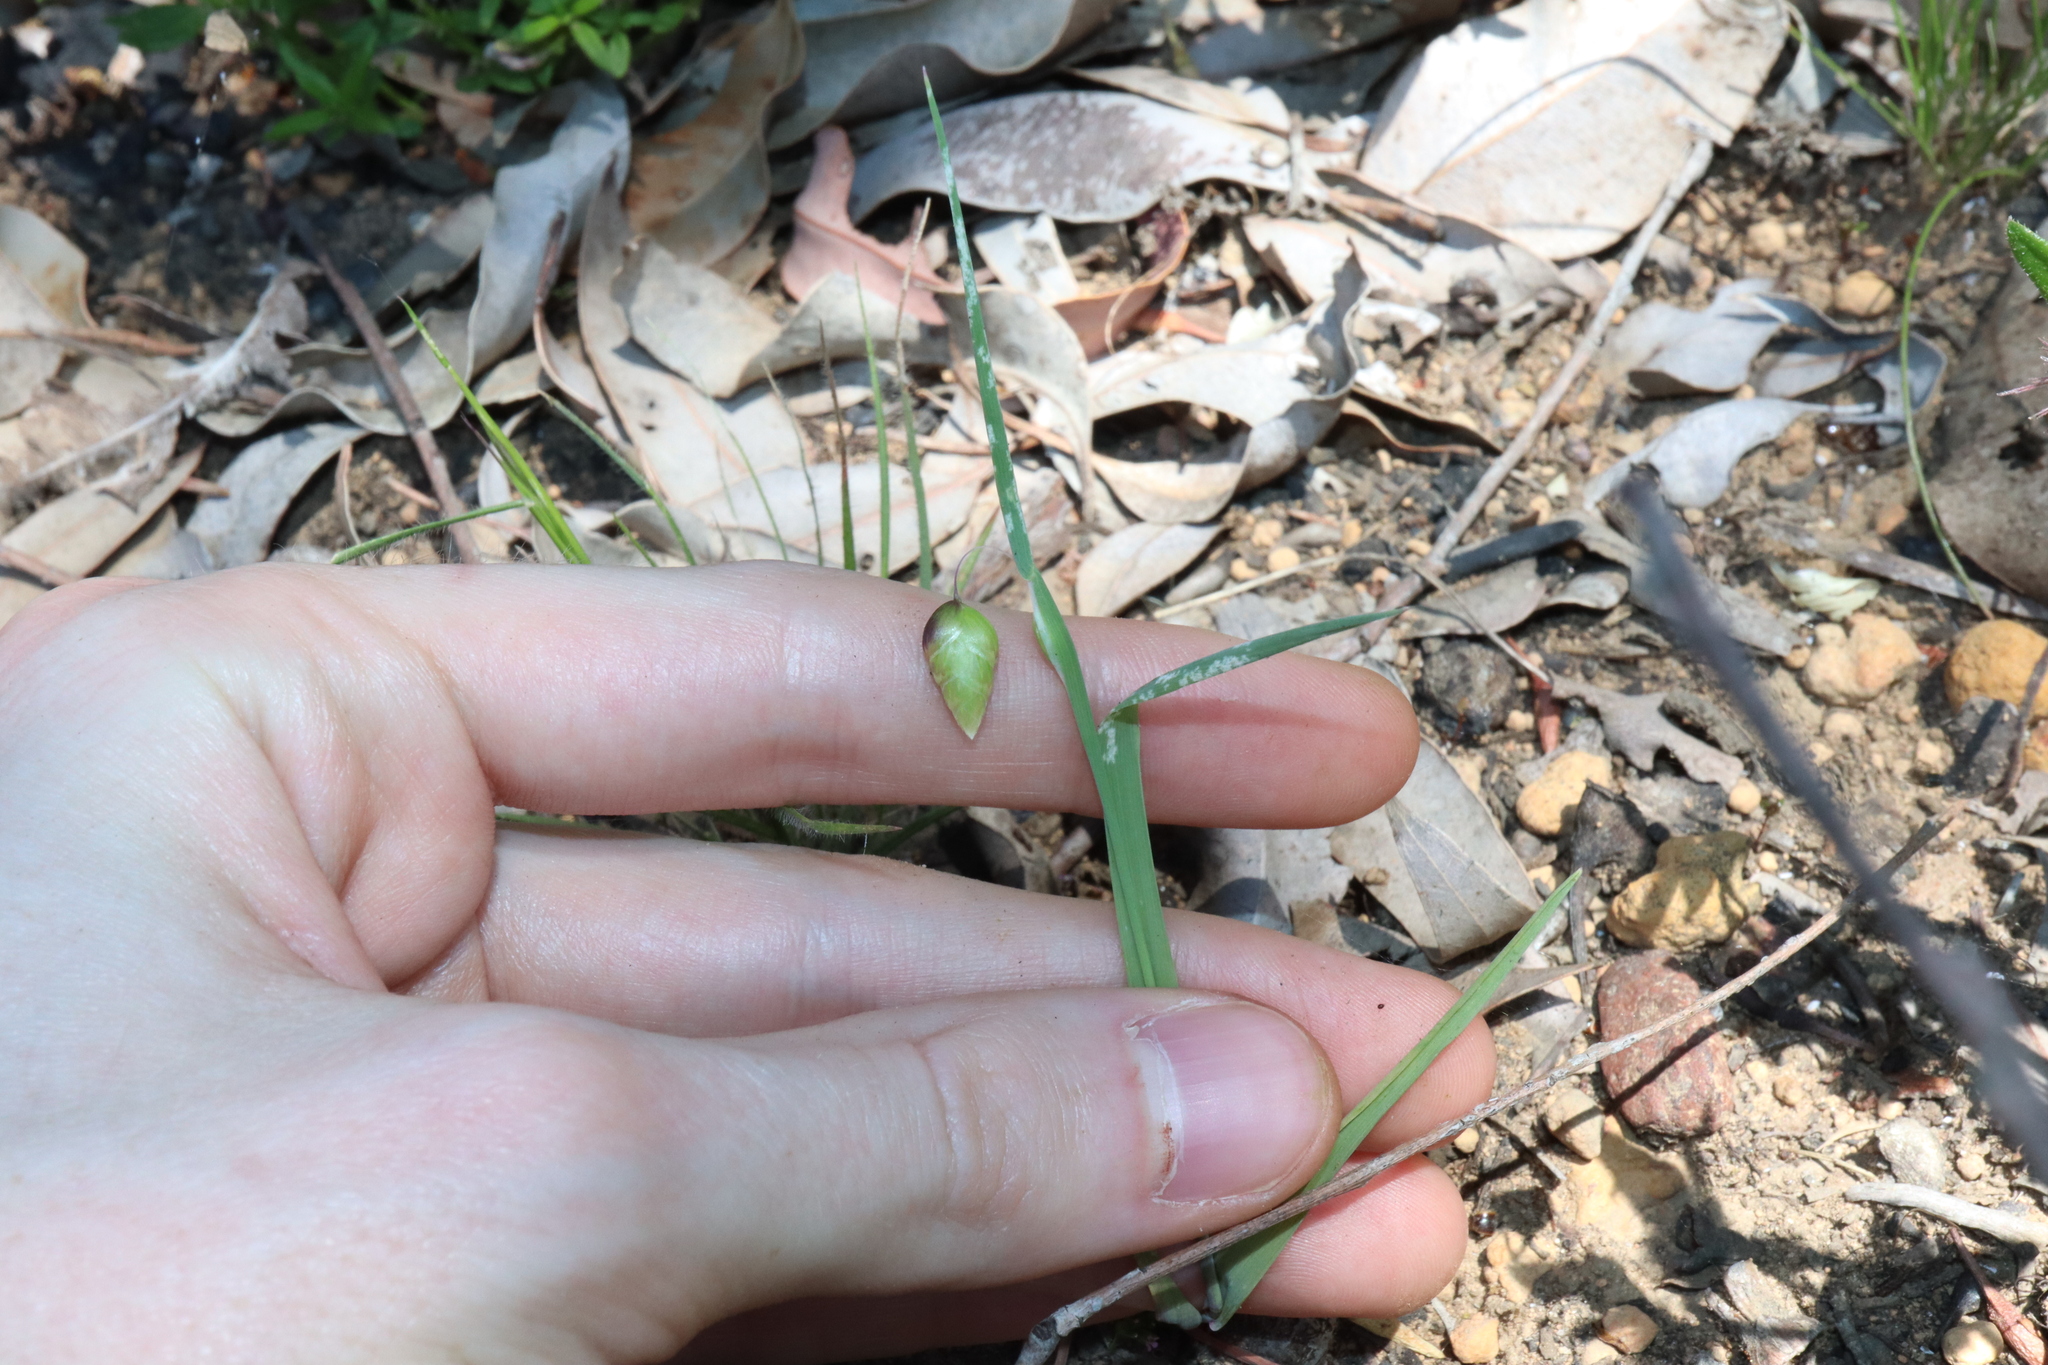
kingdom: Plantae
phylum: Tracheophyta
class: Liliopsida
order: Poales
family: Poaceae
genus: Briza
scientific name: Briza maxima
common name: Big quakinggrass
